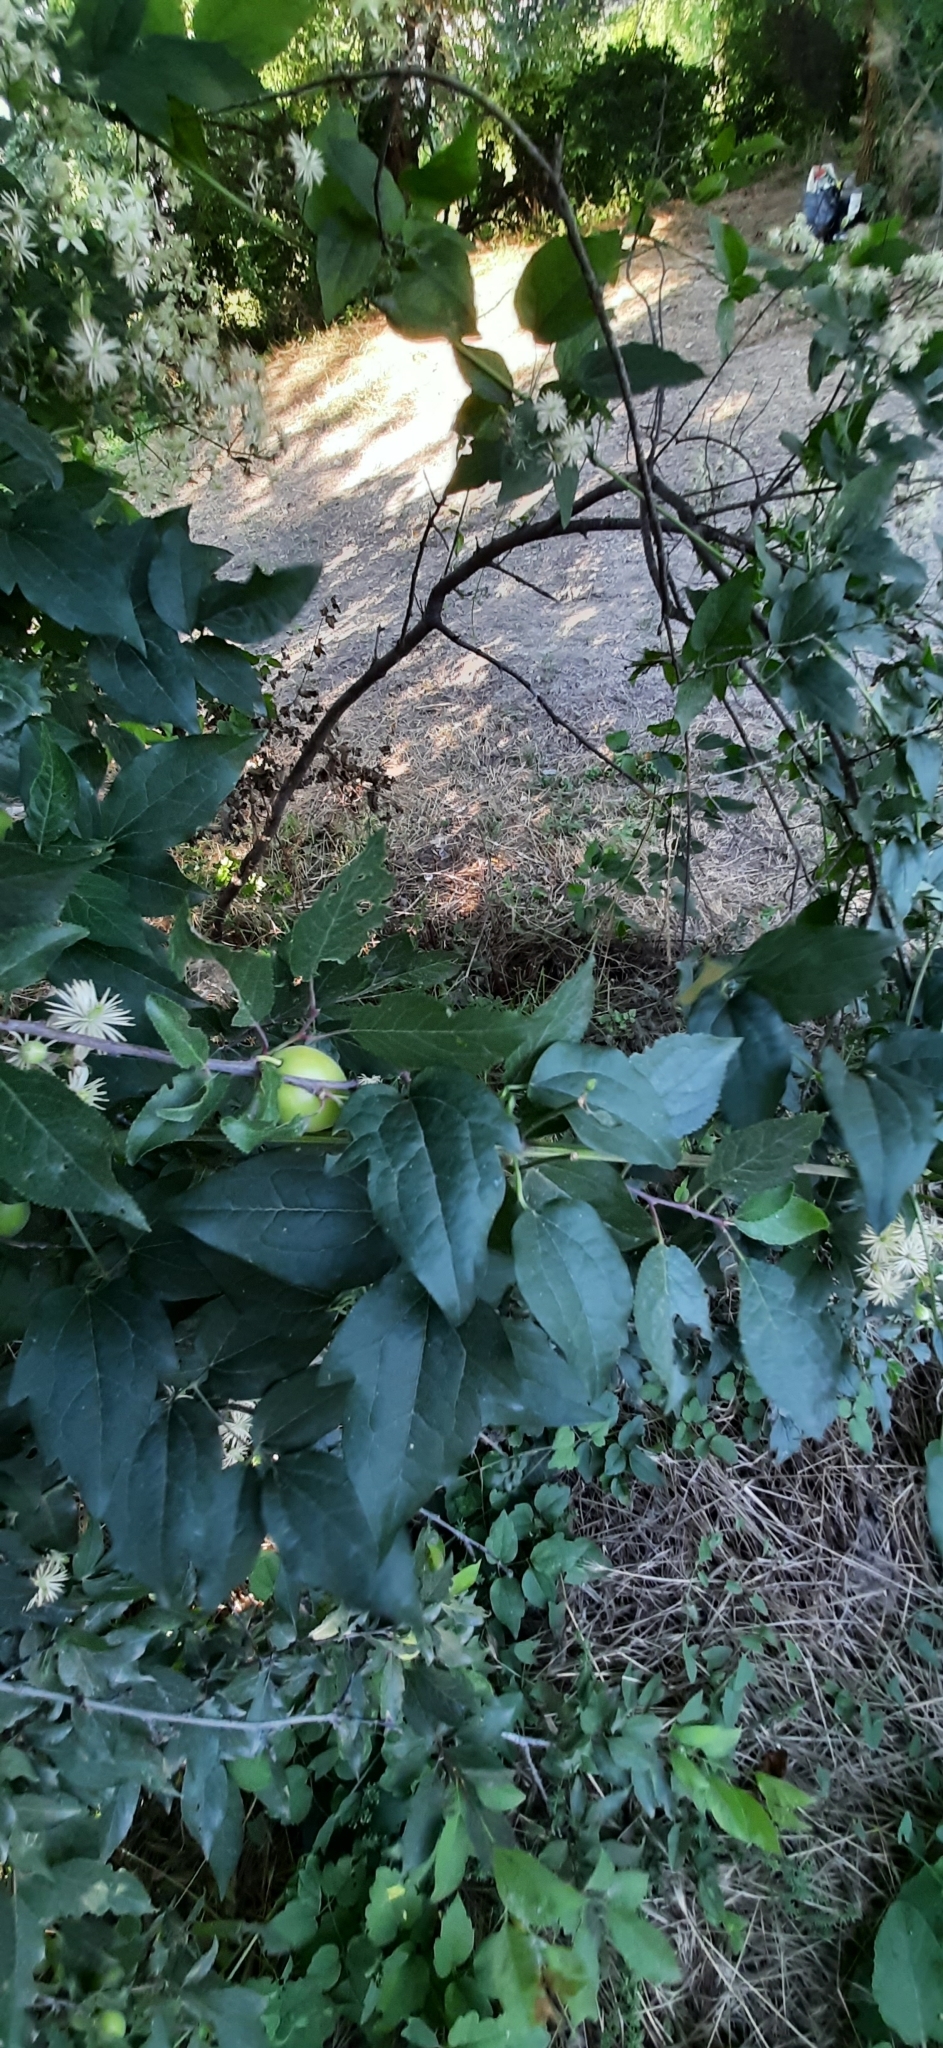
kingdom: Plantae
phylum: Tracheophyta
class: Magnoliopsida
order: Ranunculales
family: Ranunculaceae
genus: Clematis
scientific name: Clematis vitalba
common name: Evergreen clematis
